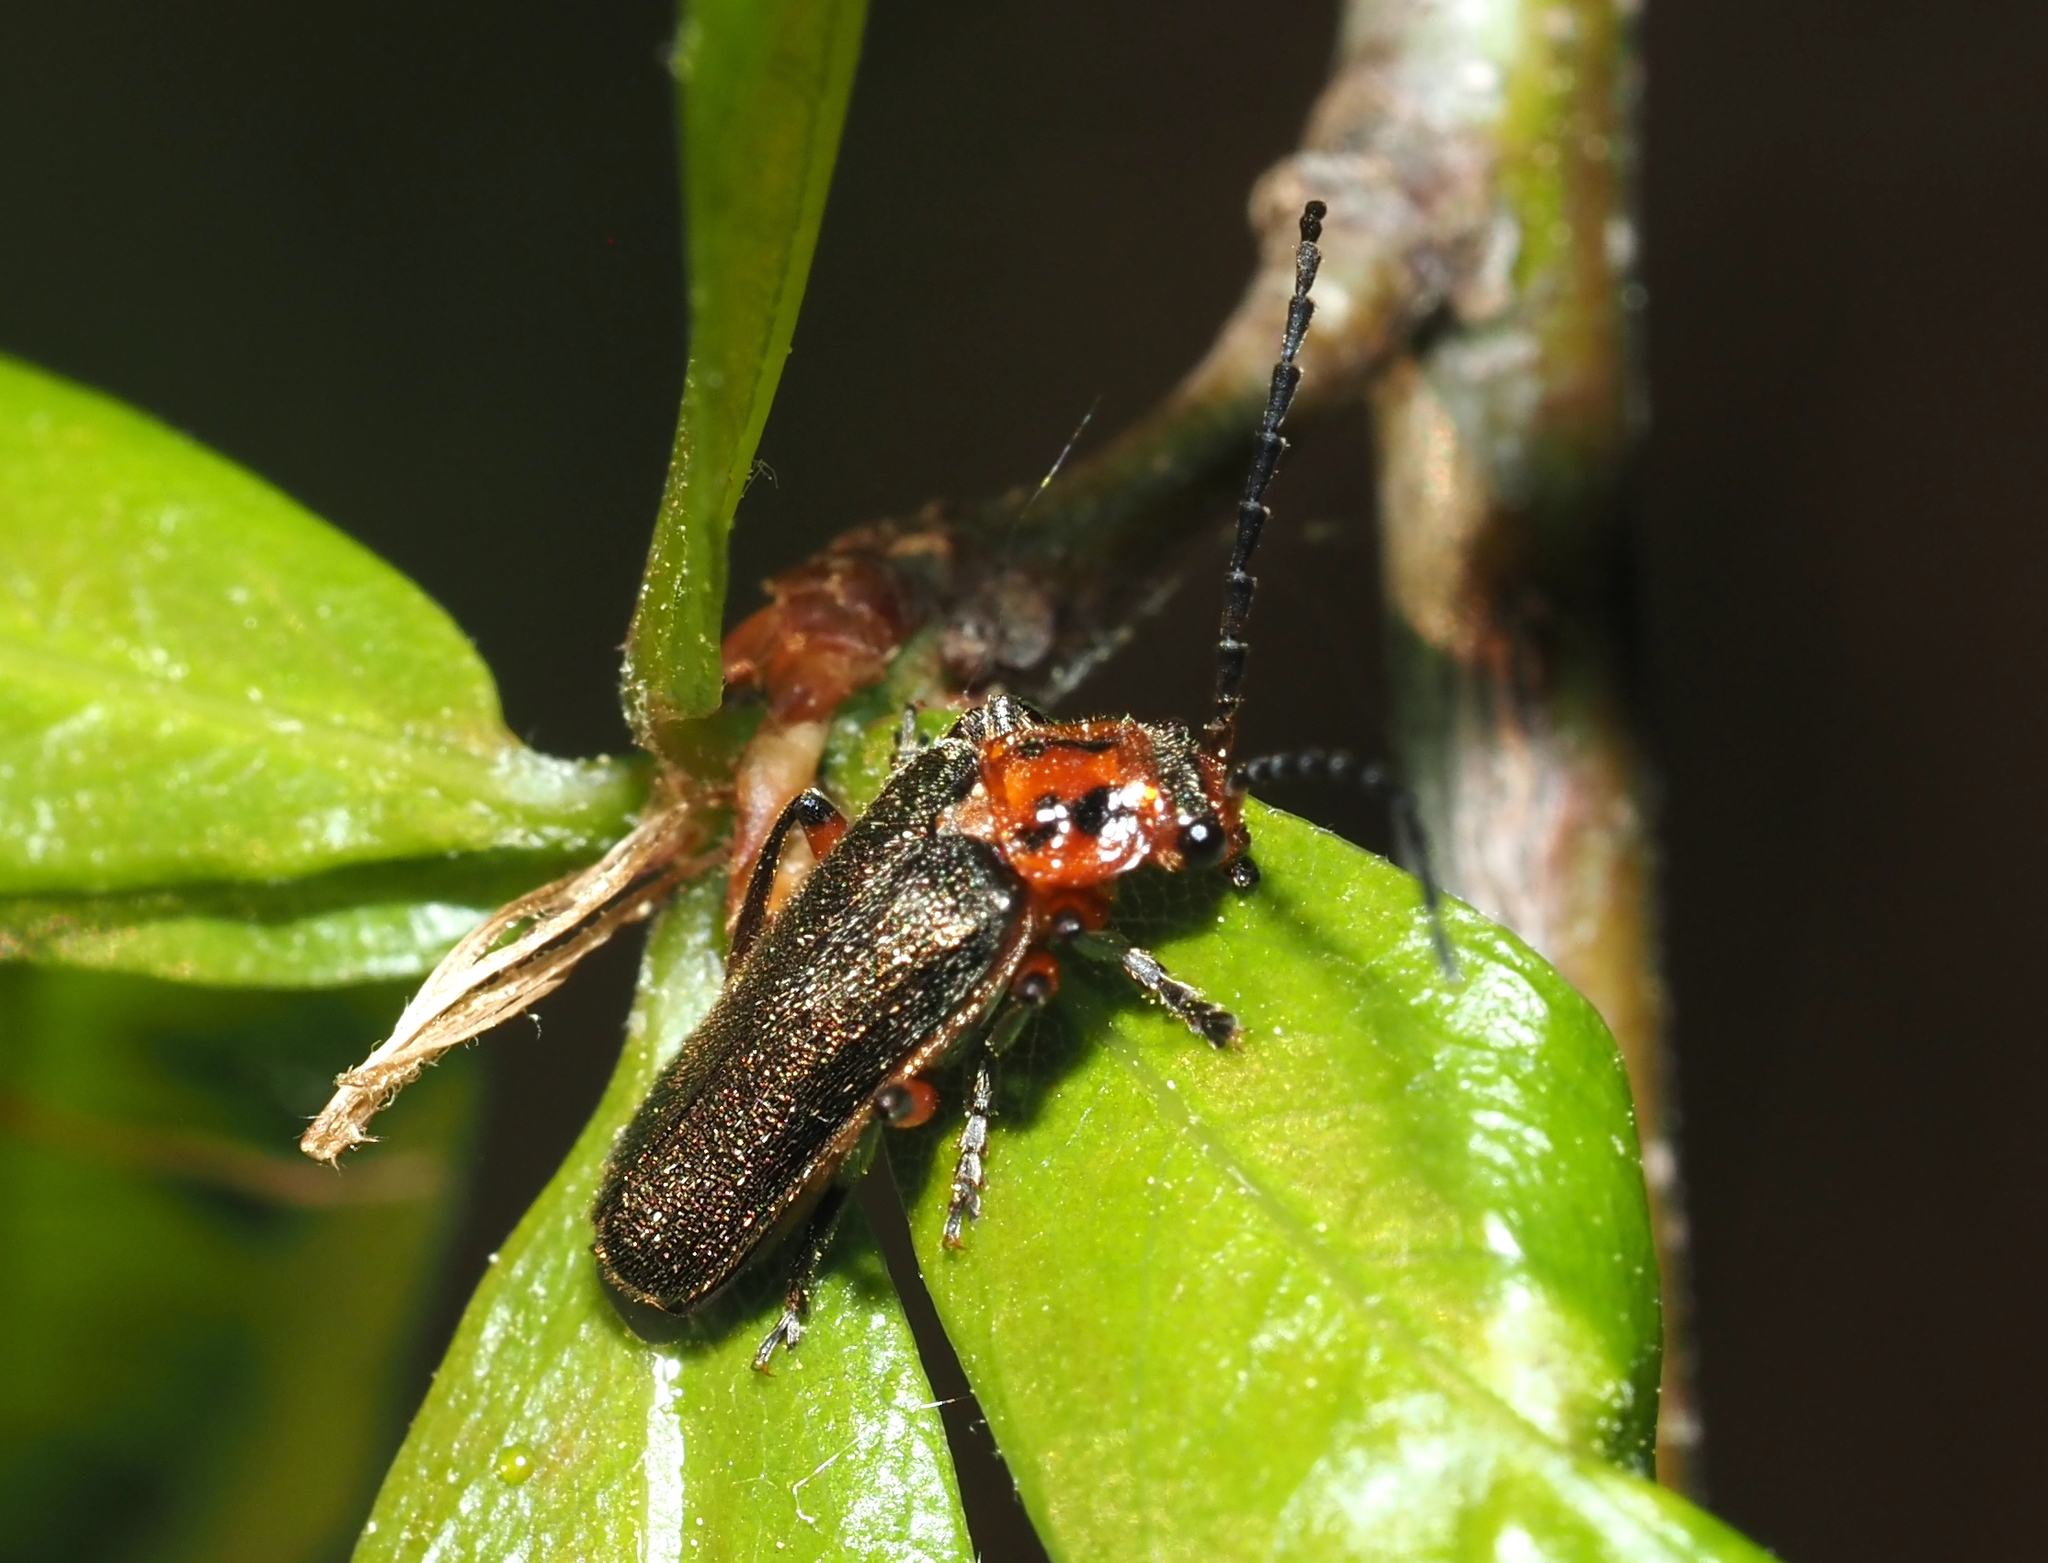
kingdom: Animalia
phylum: Arthropoda
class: Insecta
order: Coleoptera
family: Cantharidae
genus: Atalantycha
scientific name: Atalantycha bilineata
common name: Two-lined leatherwing
